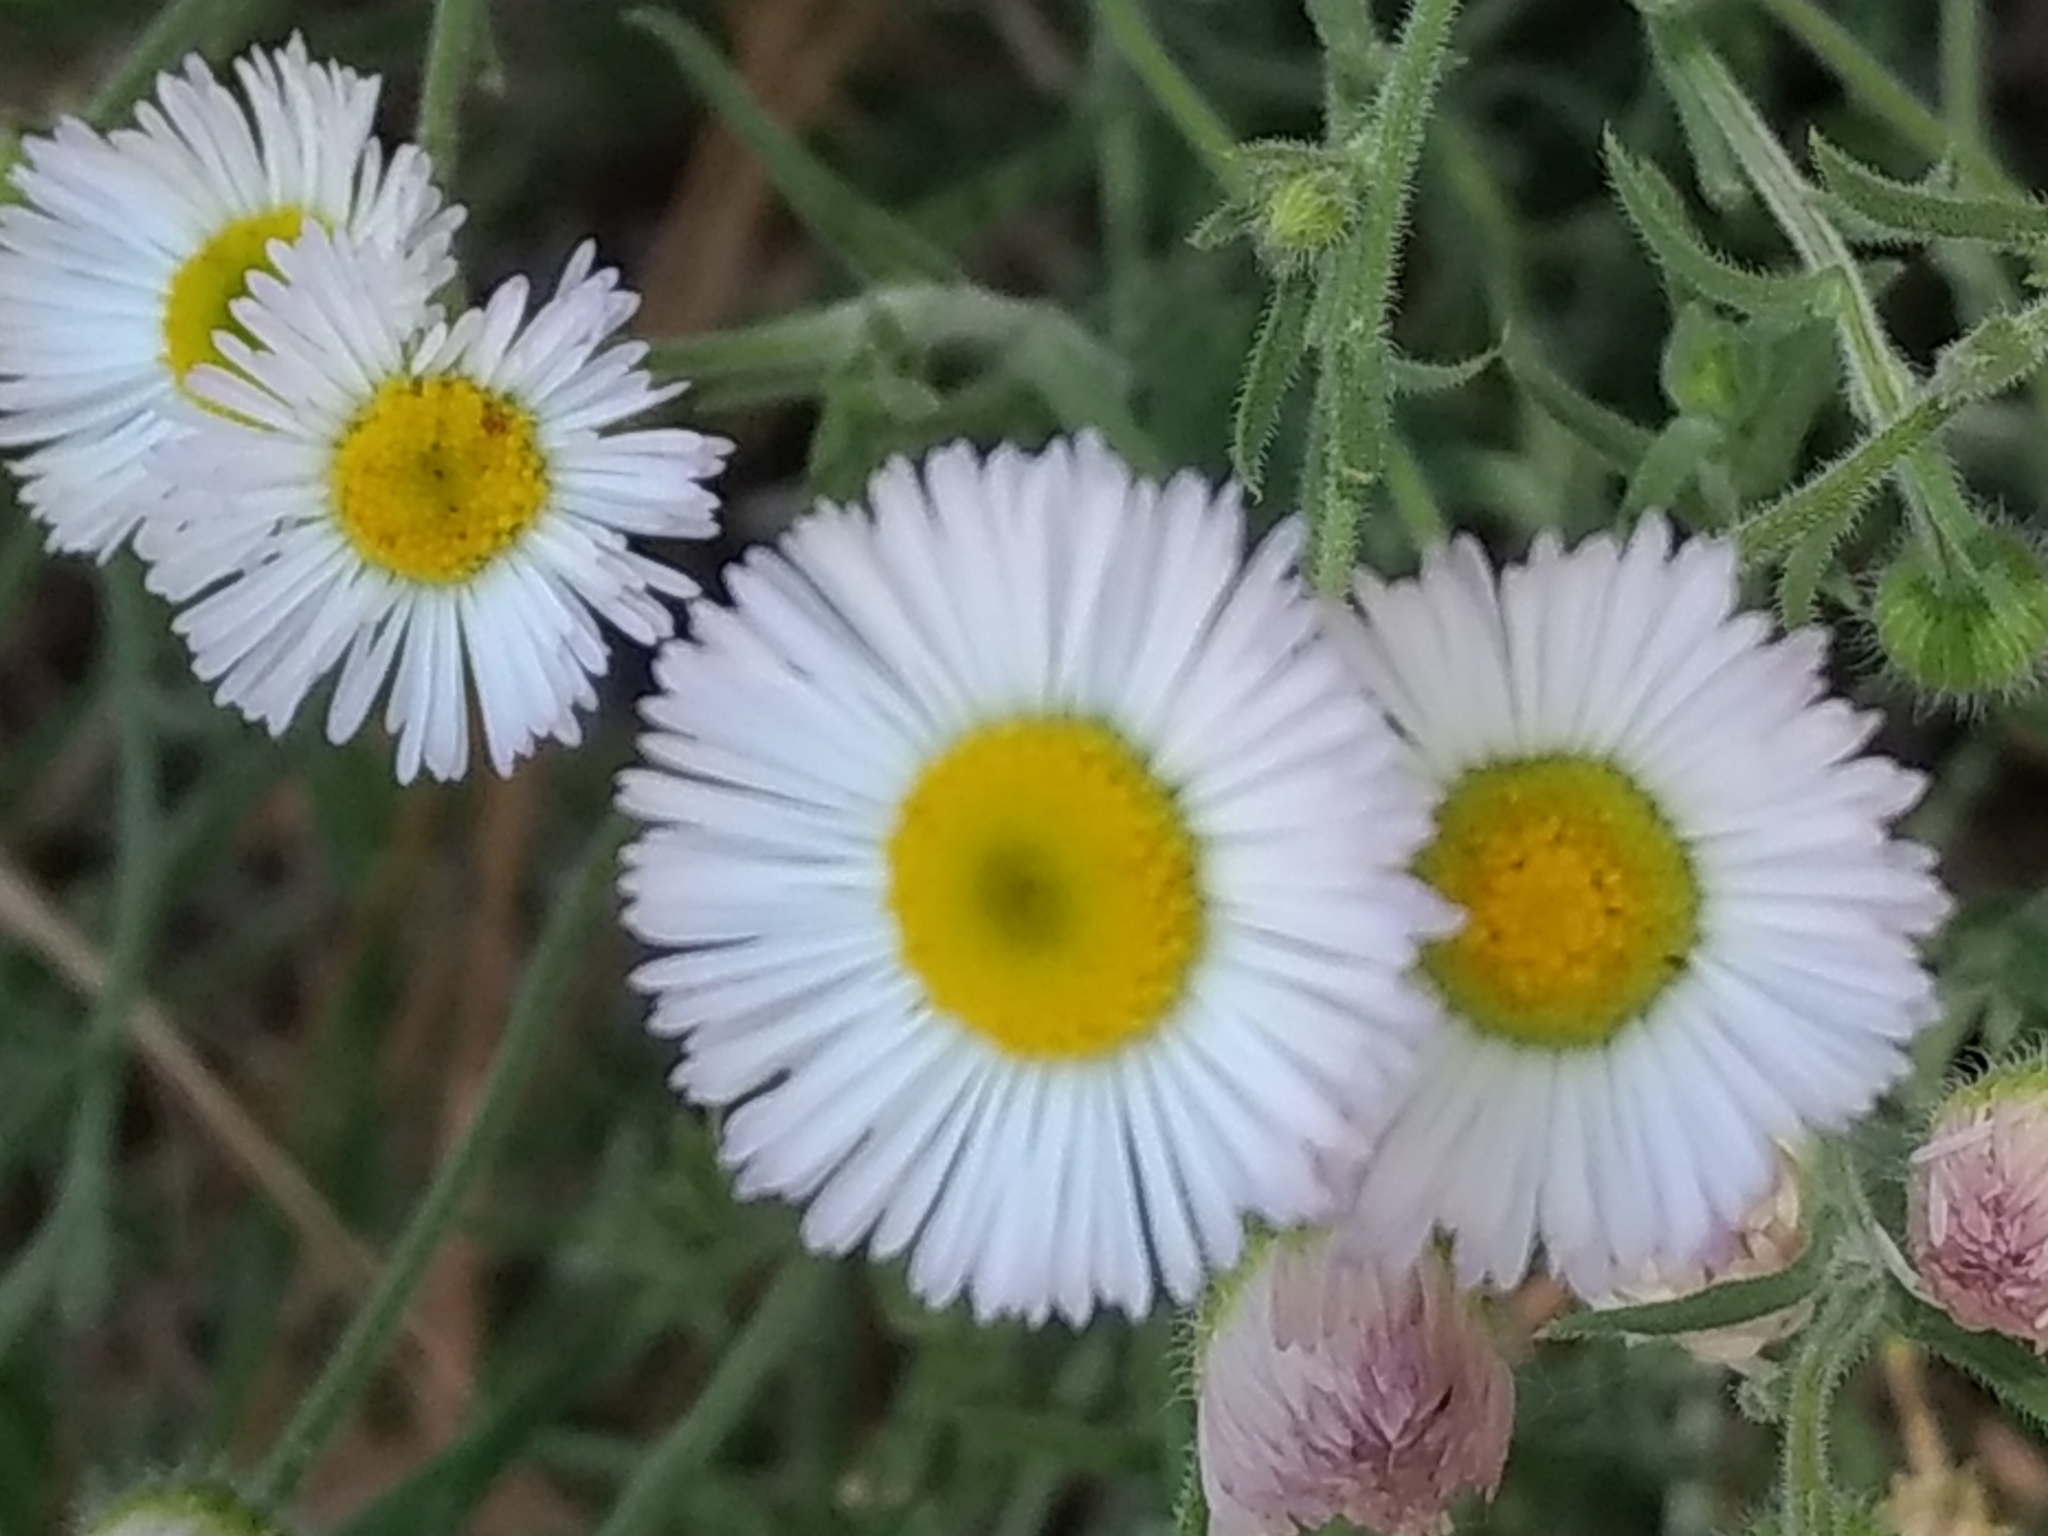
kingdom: Plantae
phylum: Tracheophyta
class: Magnoliopsida
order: Asterales
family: Asteraceae
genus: Erigeron
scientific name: Erigeron divergens
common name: Diffuse fleabane
